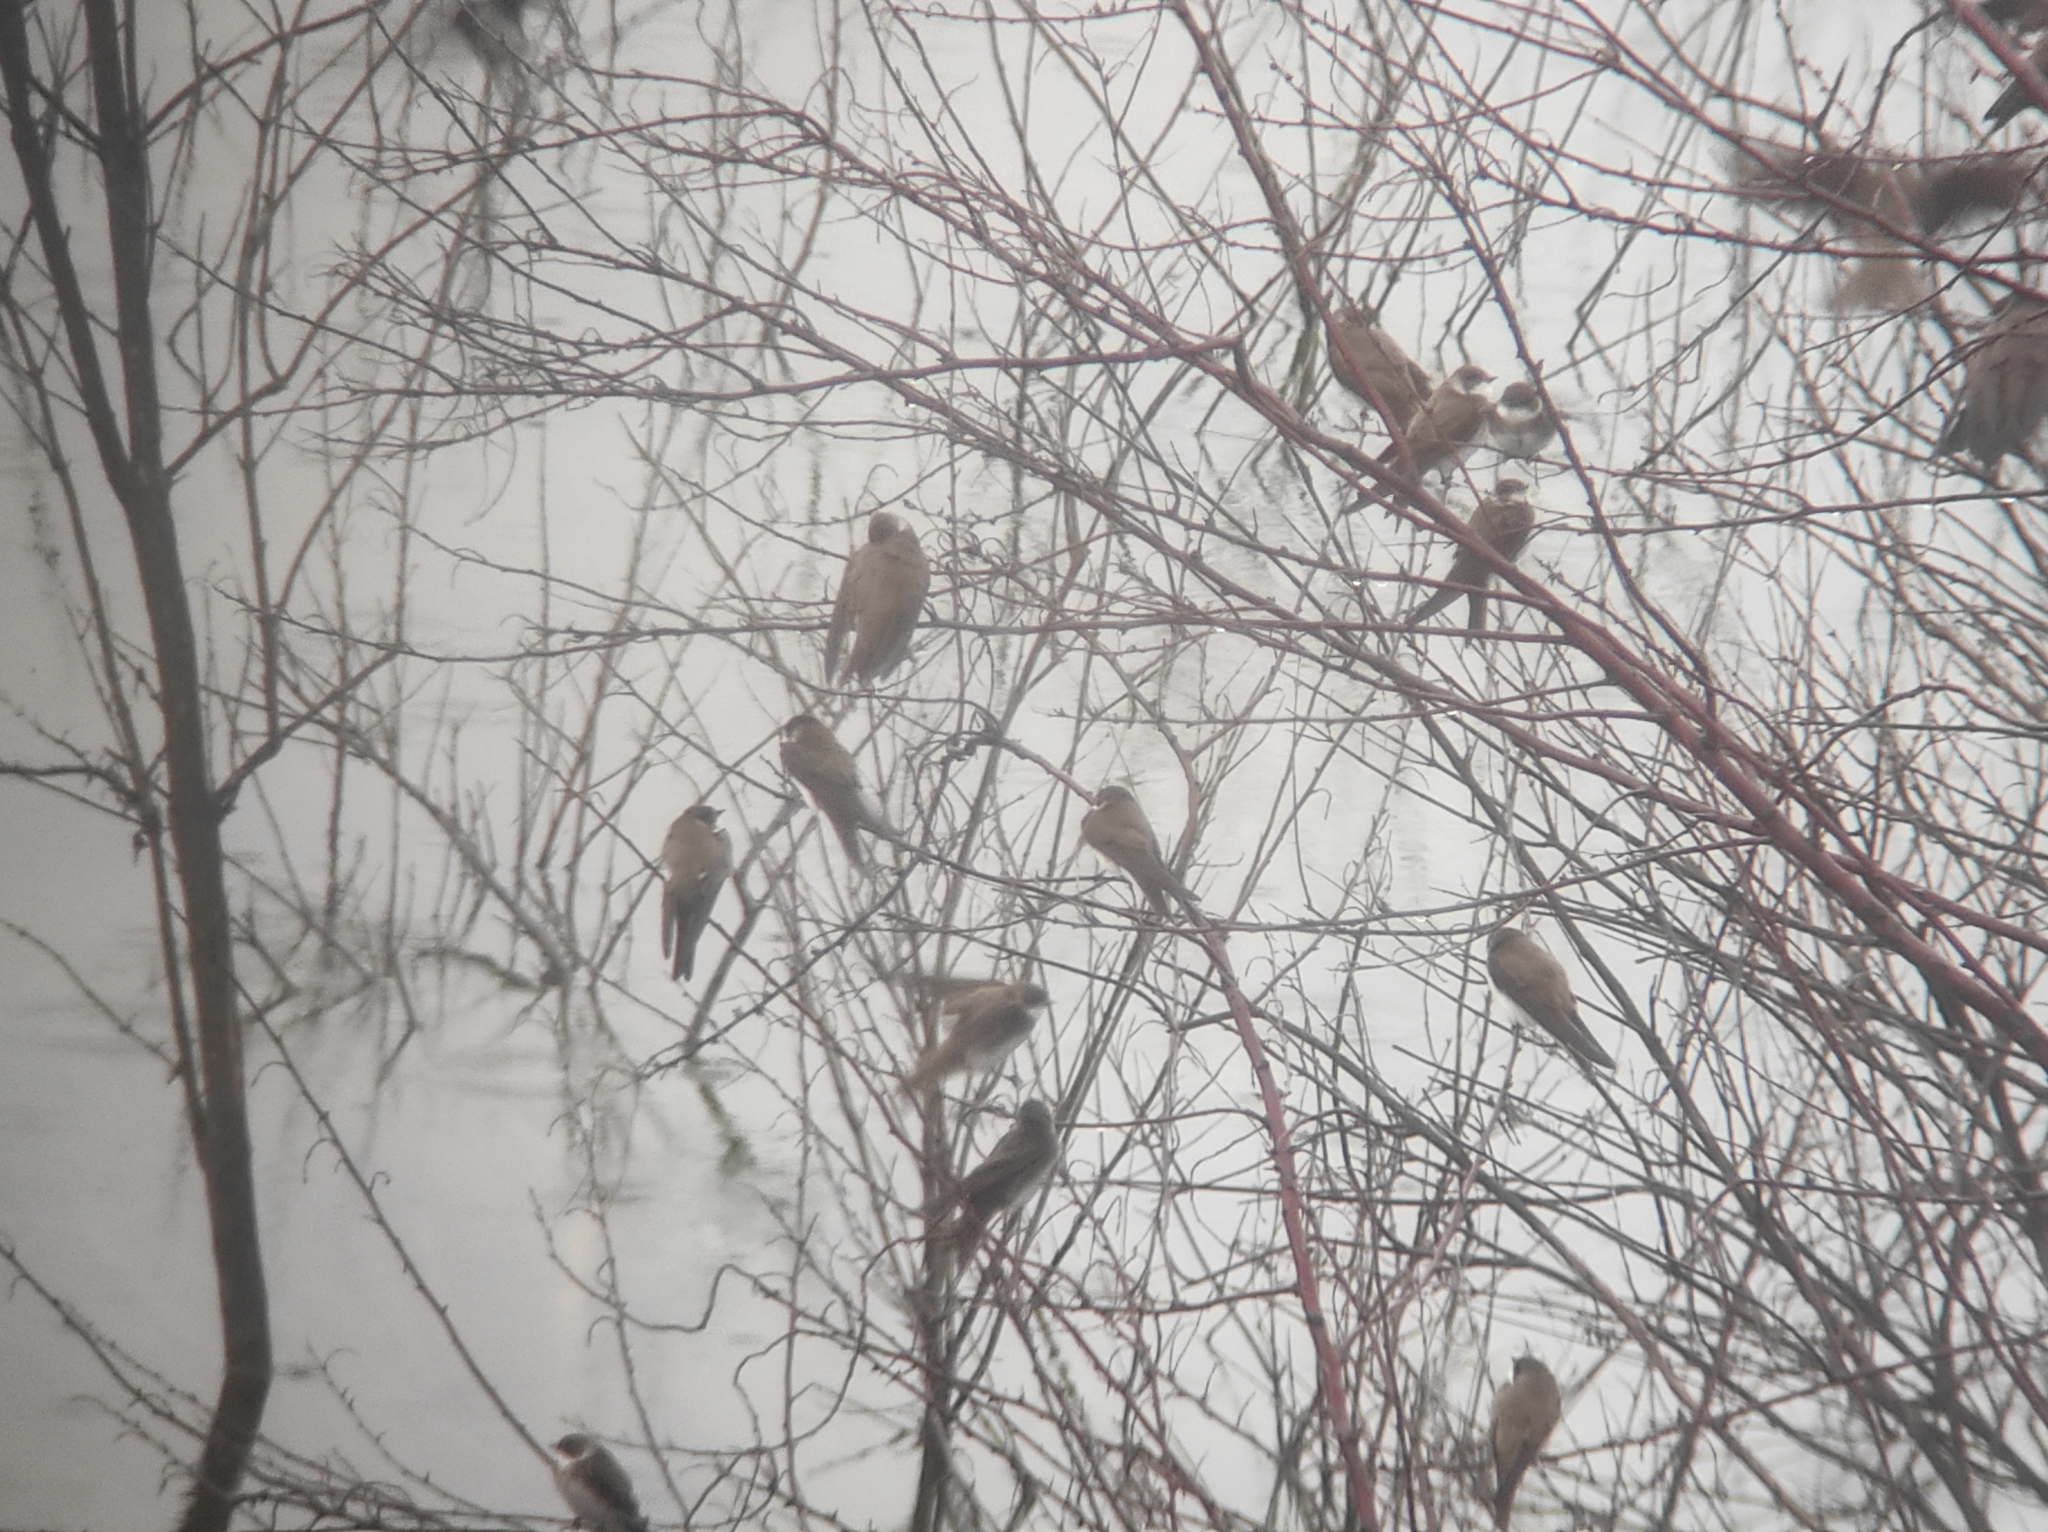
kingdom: Animalia
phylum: Chordata
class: Aves
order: Passeriformes
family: Hirundinidae
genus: Riparia
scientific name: Riparia riparia
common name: Sand martin
